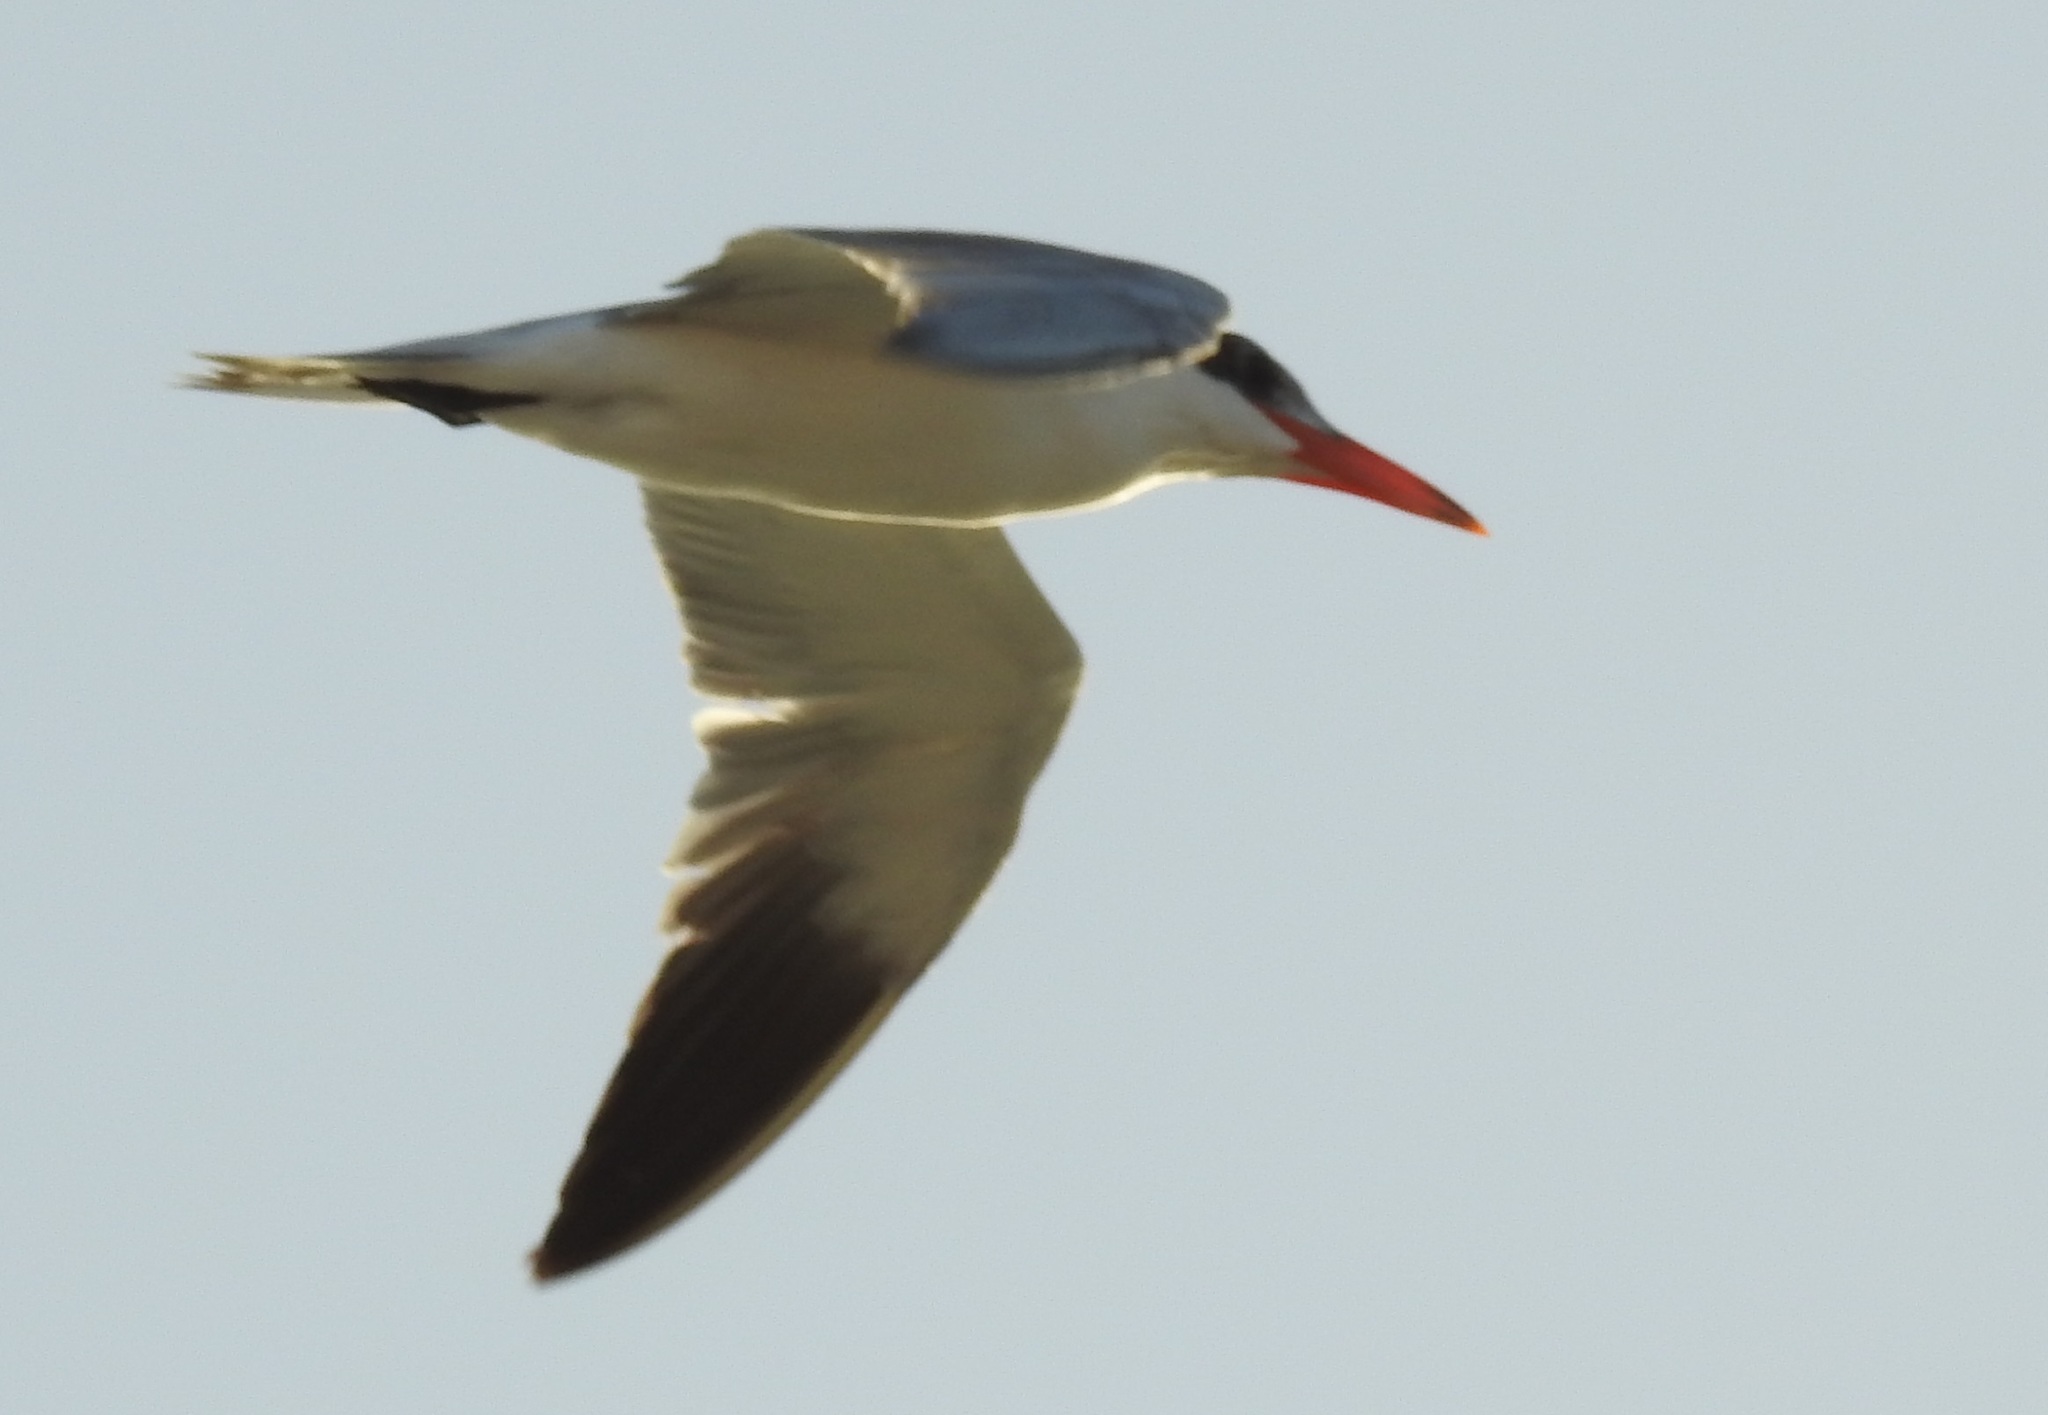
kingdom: Animalia
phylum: Chordata
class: Aves
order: Charadriiformes
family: Laridae
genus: Hydroprogne
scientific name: Hydroprogne caspia
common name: Caspian tern
